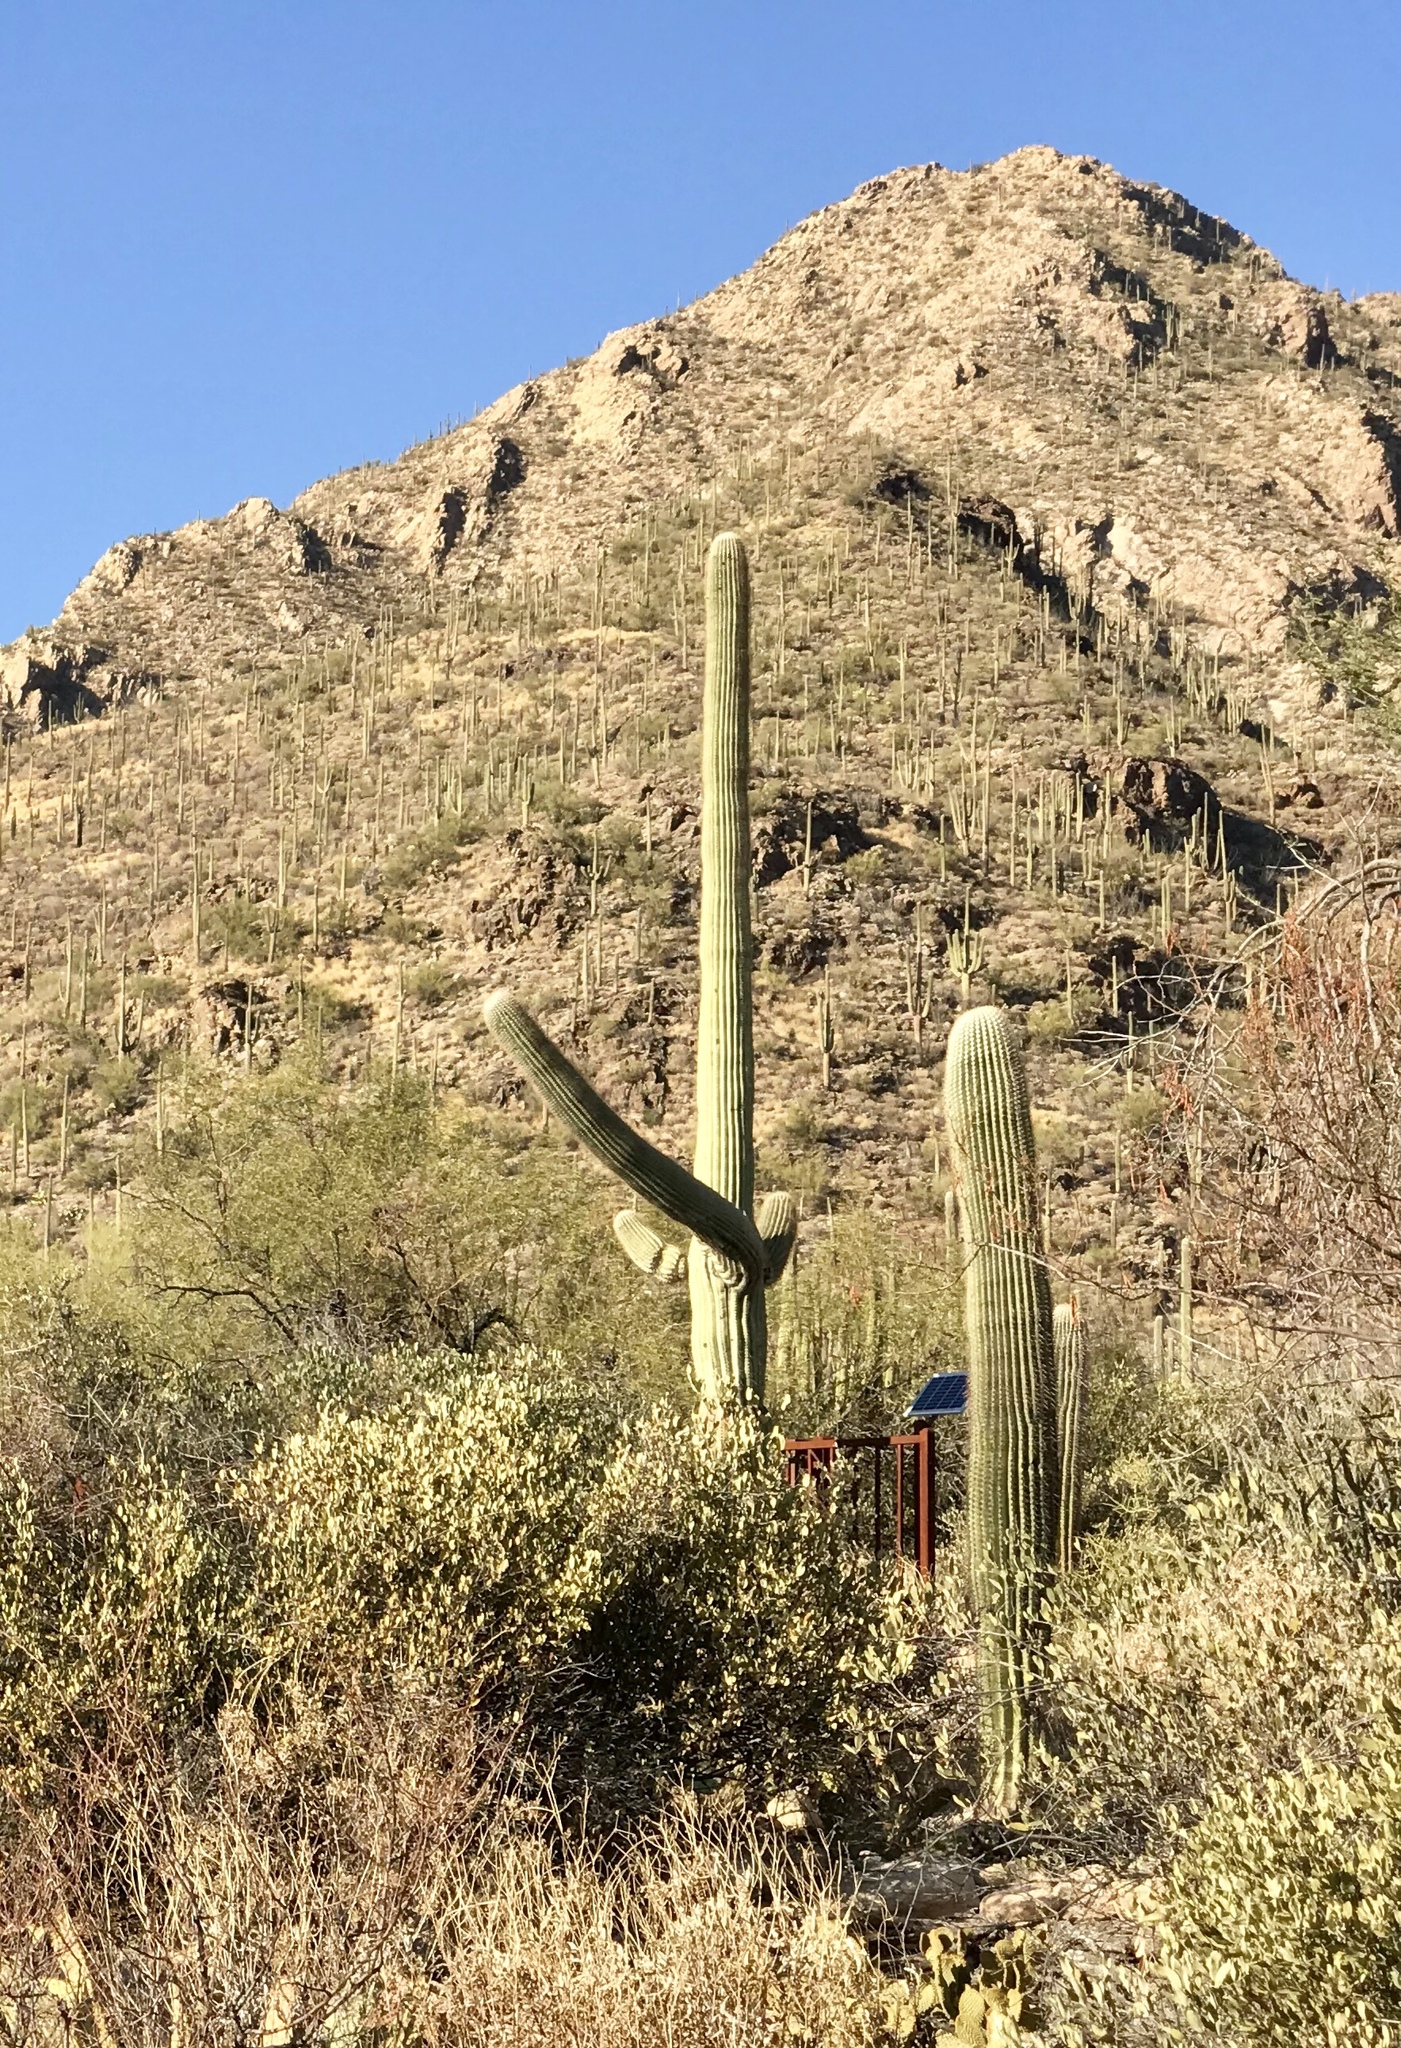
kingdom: Plantae
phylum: Tracheophyta
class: Magnoliopsida
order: Caryophyllales
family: Cactaceae
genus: Carnegiea
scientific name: Carnegiea gigantea
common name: Saguaro
